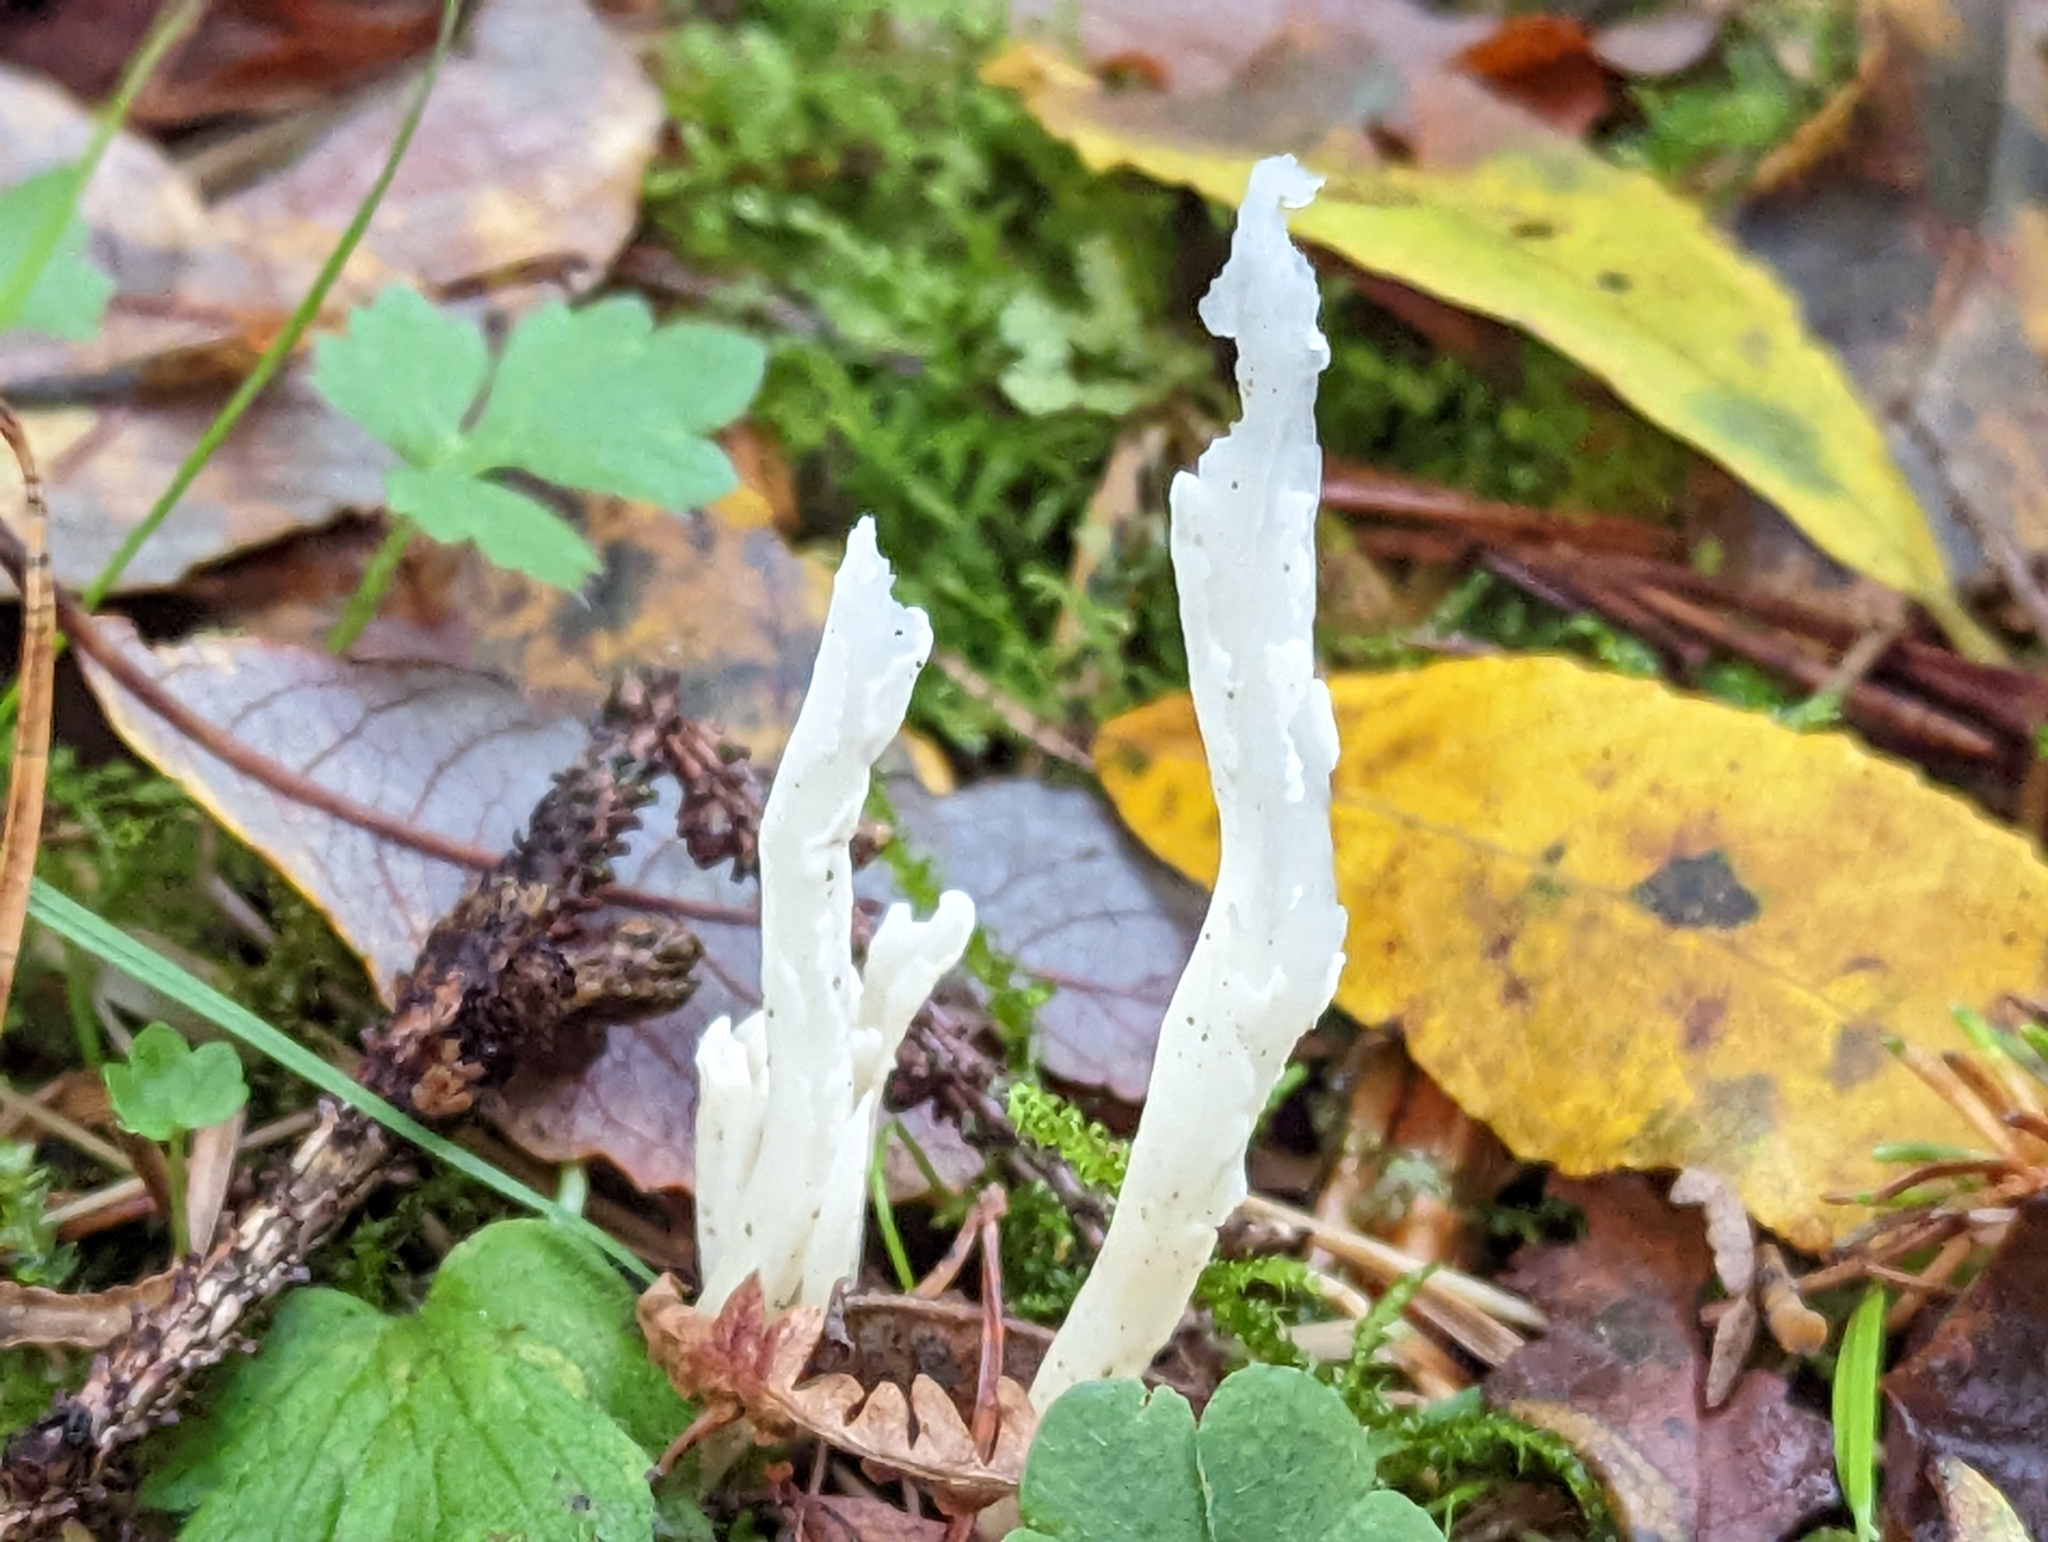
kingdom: Fungi
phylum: Basidiomycota
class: Agaricomycetes
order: Cantharellales
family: Hydnaceae
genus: Clavulina
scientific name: Clavulina rugosa
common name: Wrinkled club
